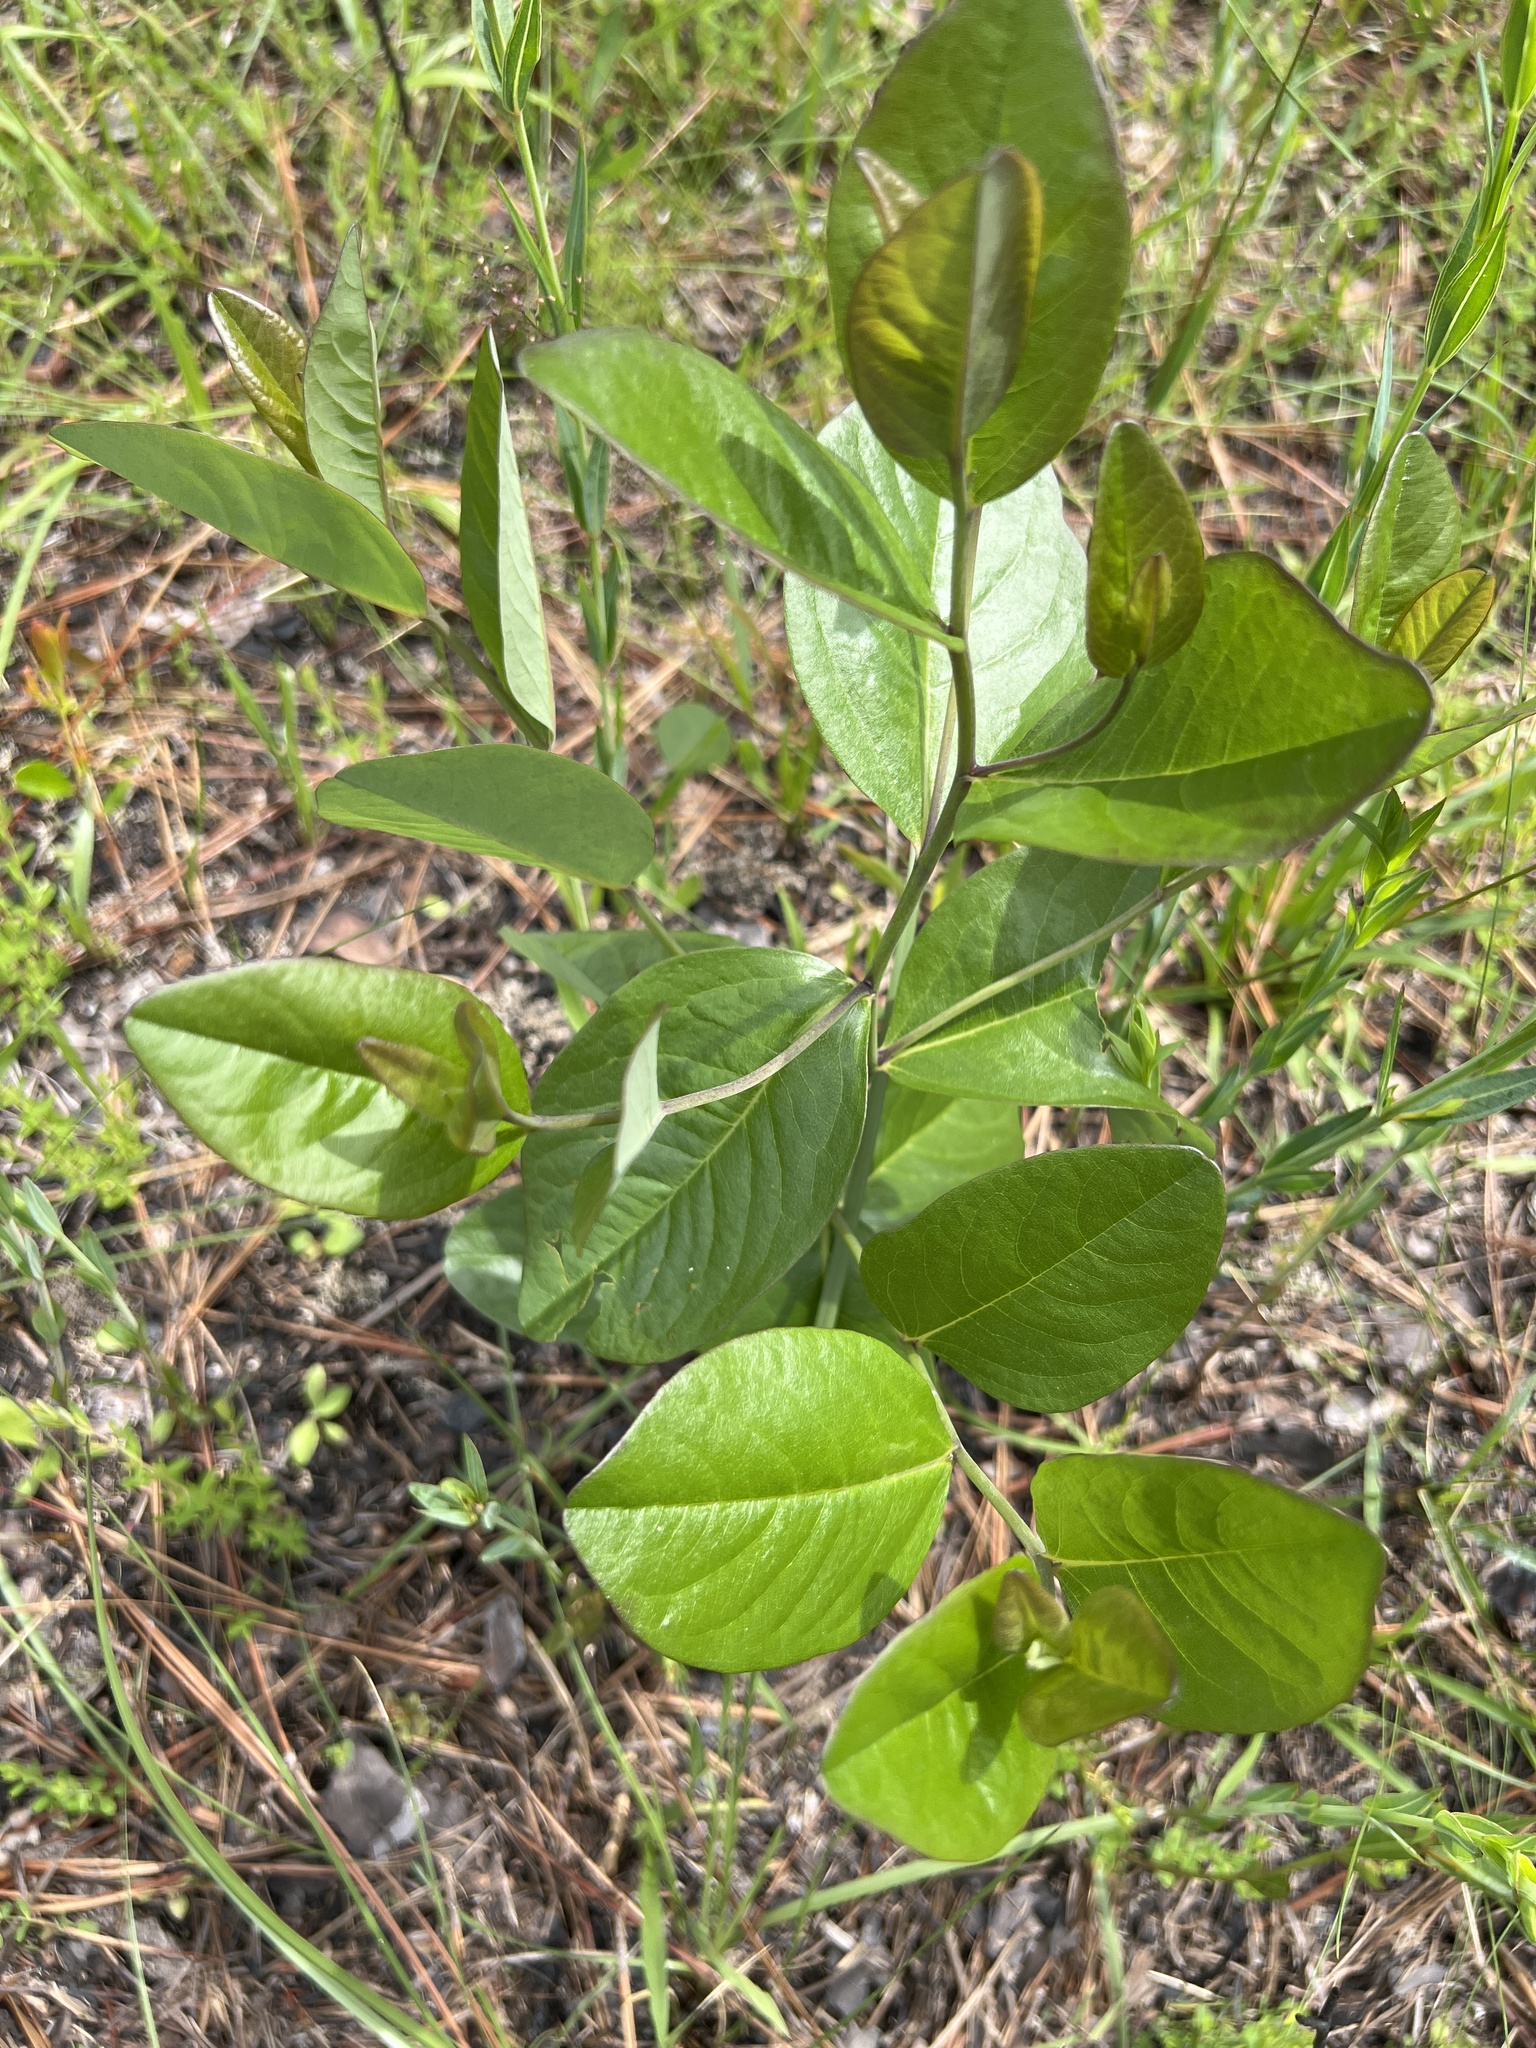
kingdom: Plantae
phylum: Tracheophyta
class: Magnoliopsida
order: Fabales
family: Fabaceae
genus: Baptisia
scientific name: Baptisia simplicifolia
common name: Scareweed
